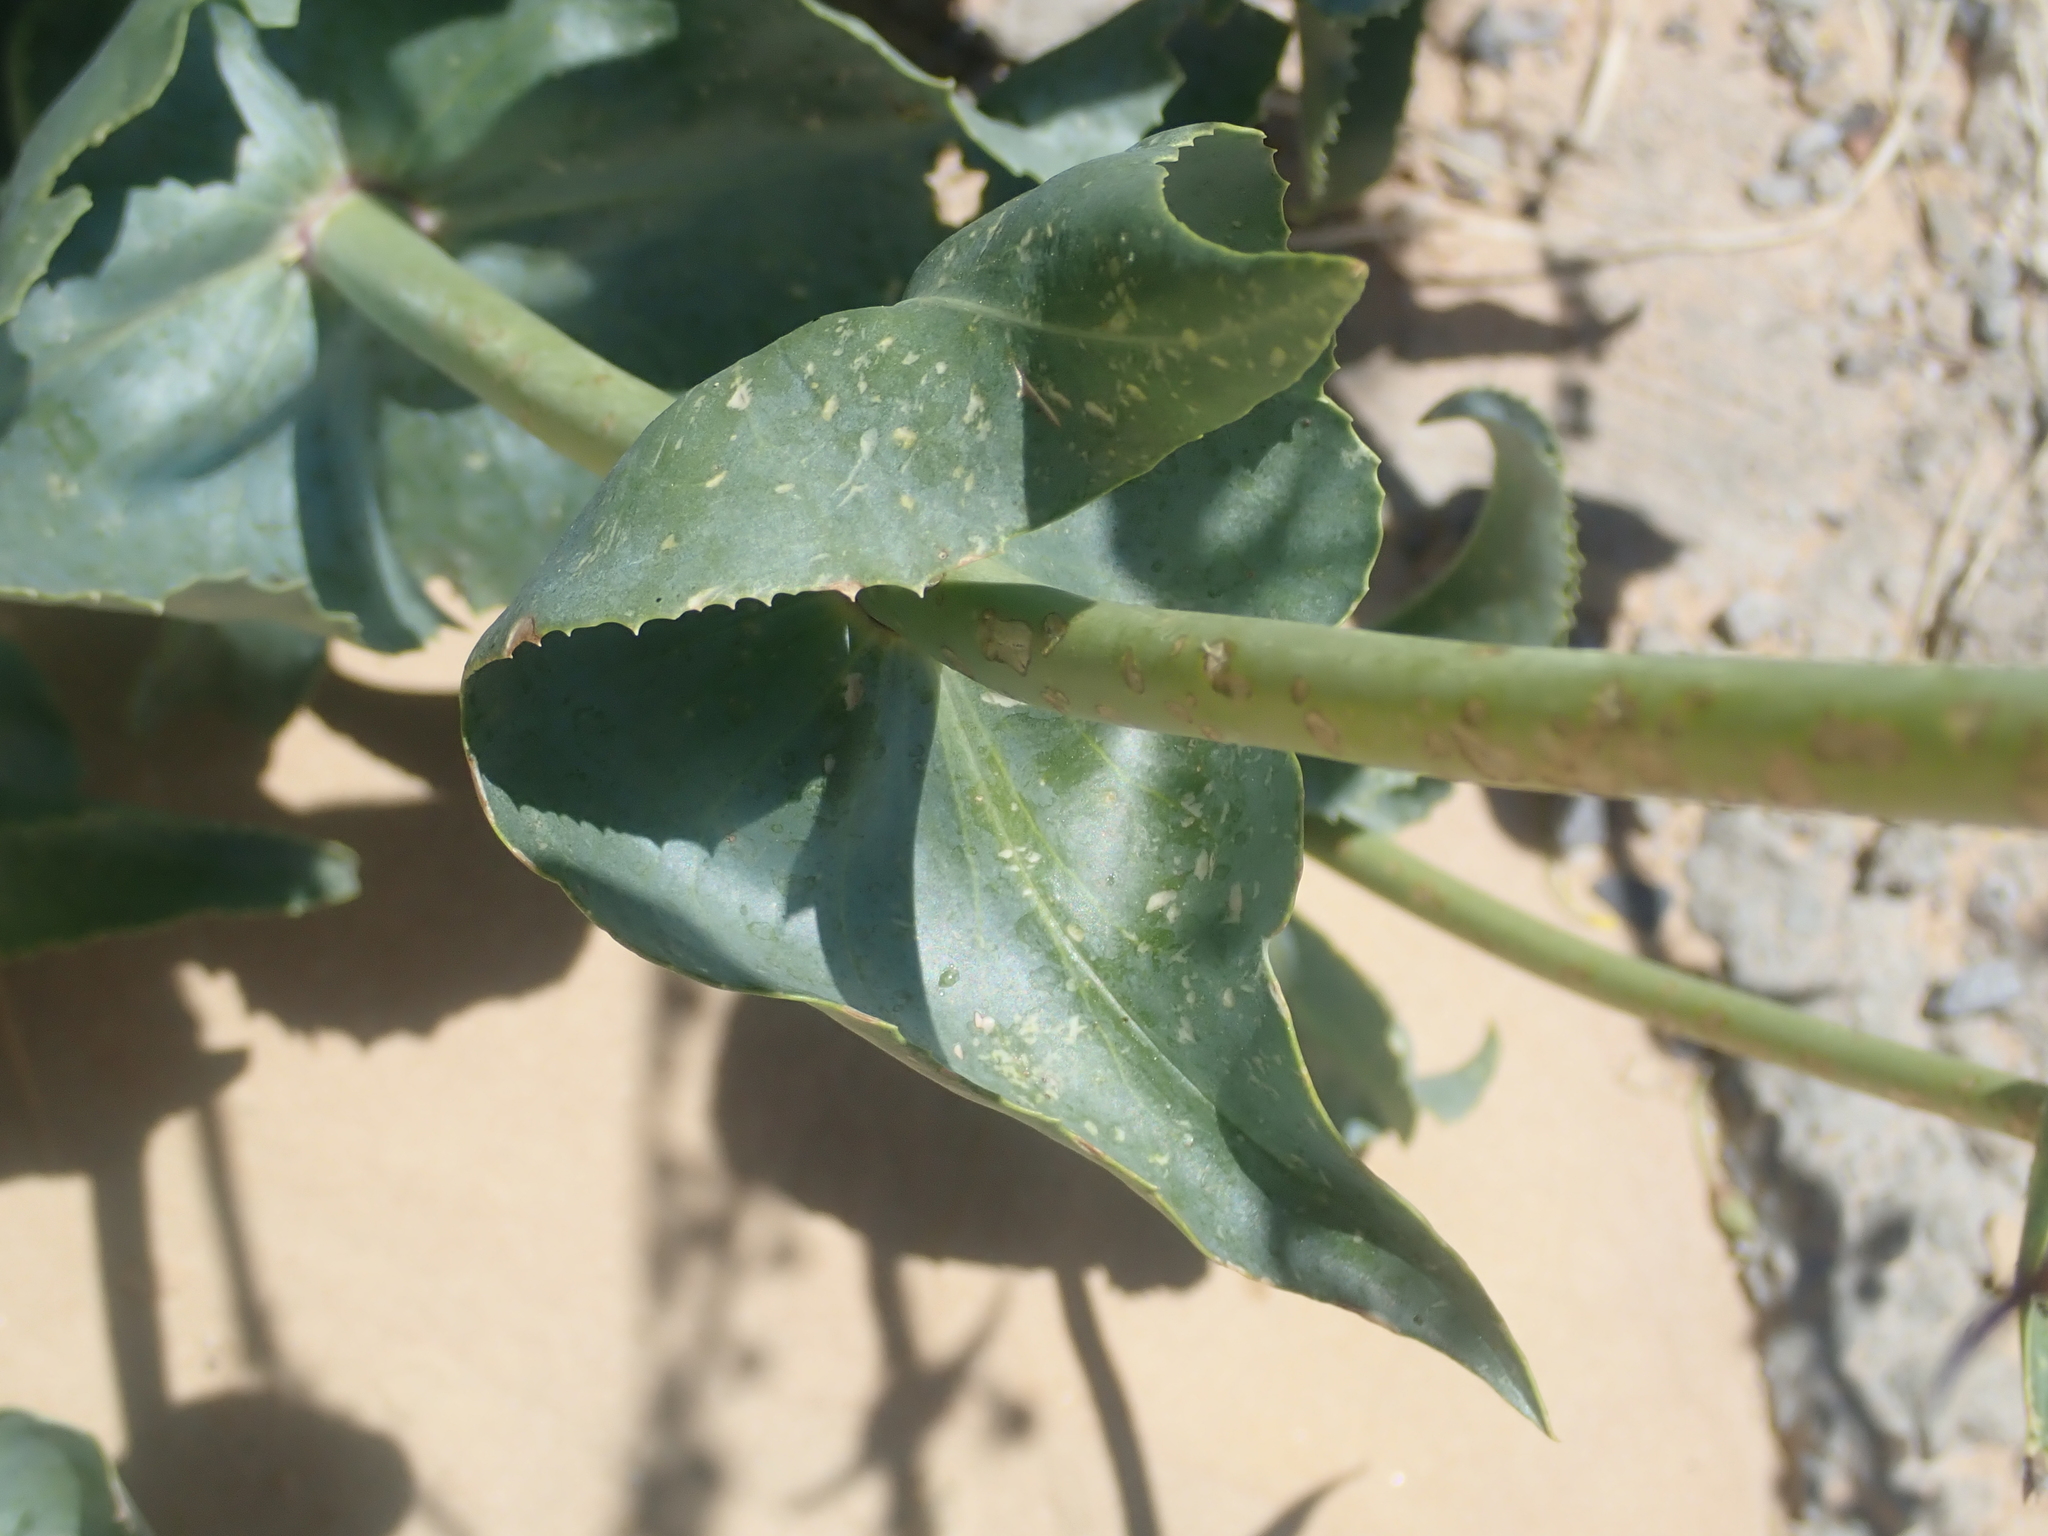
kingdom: Plantae
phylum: Tracheophyta
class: Magnoliopsida
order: Lamiales
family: Plantaginaceae
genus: Penstemon
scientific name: Penstemon palmeri
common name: Palmer penstemon
